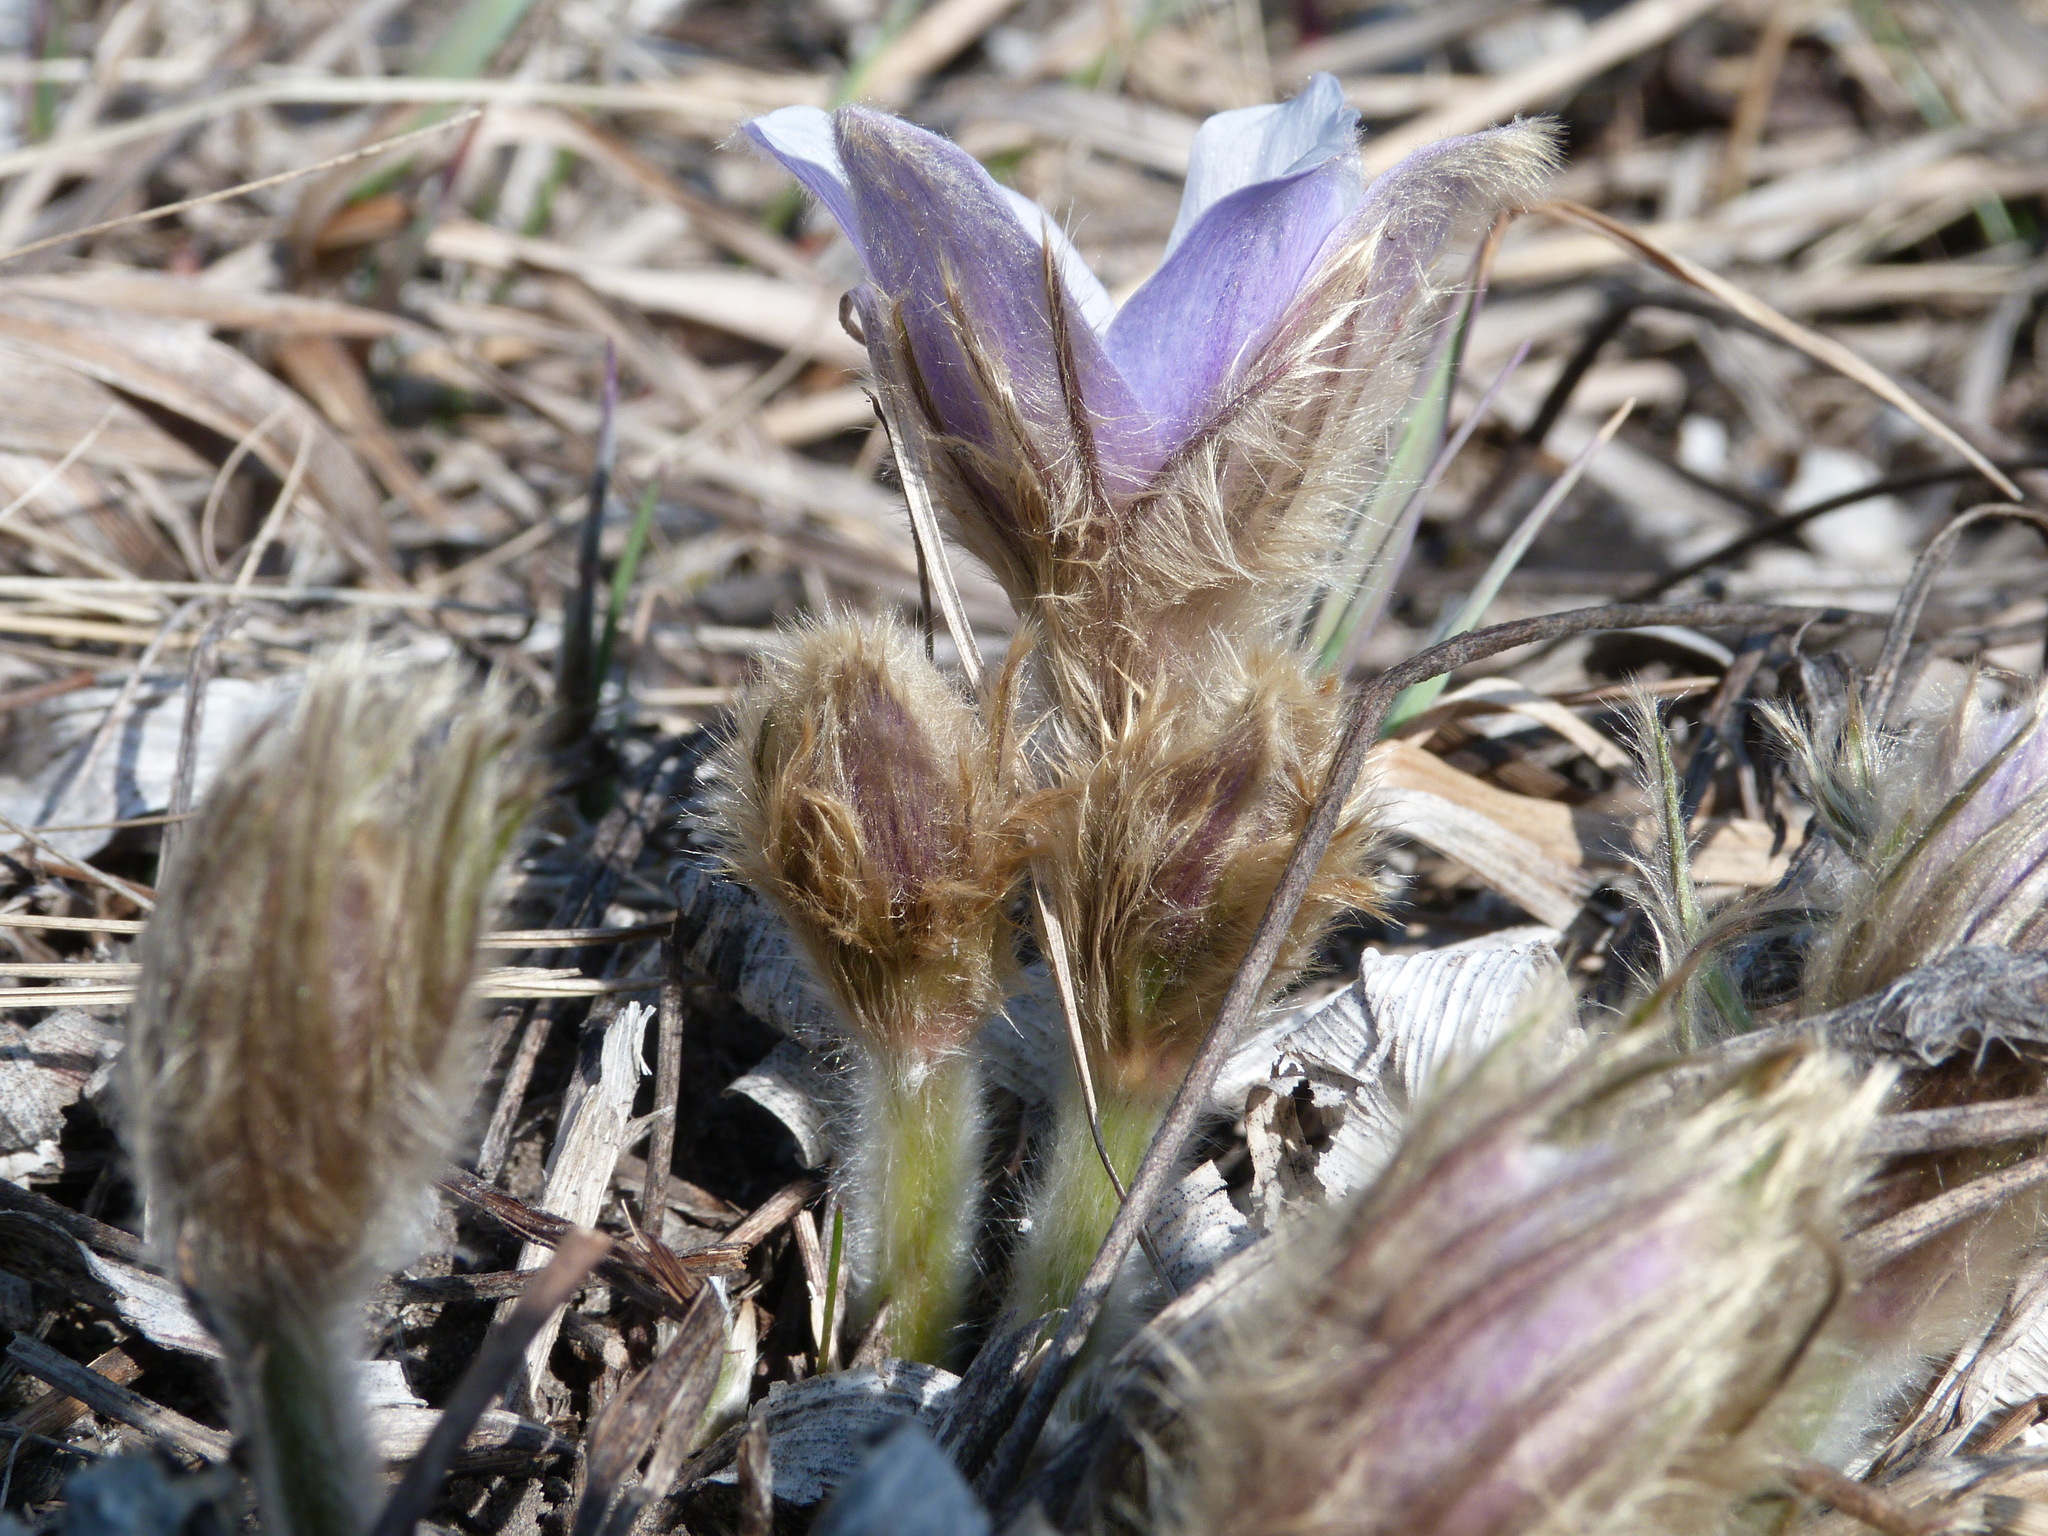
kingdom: Plantae
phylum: Tracheophyta
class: Magnoliopsida
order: Ranunculales
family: Ranunculaceae
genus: Pulsatilla
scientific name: Pulsatilla nuttalliana
